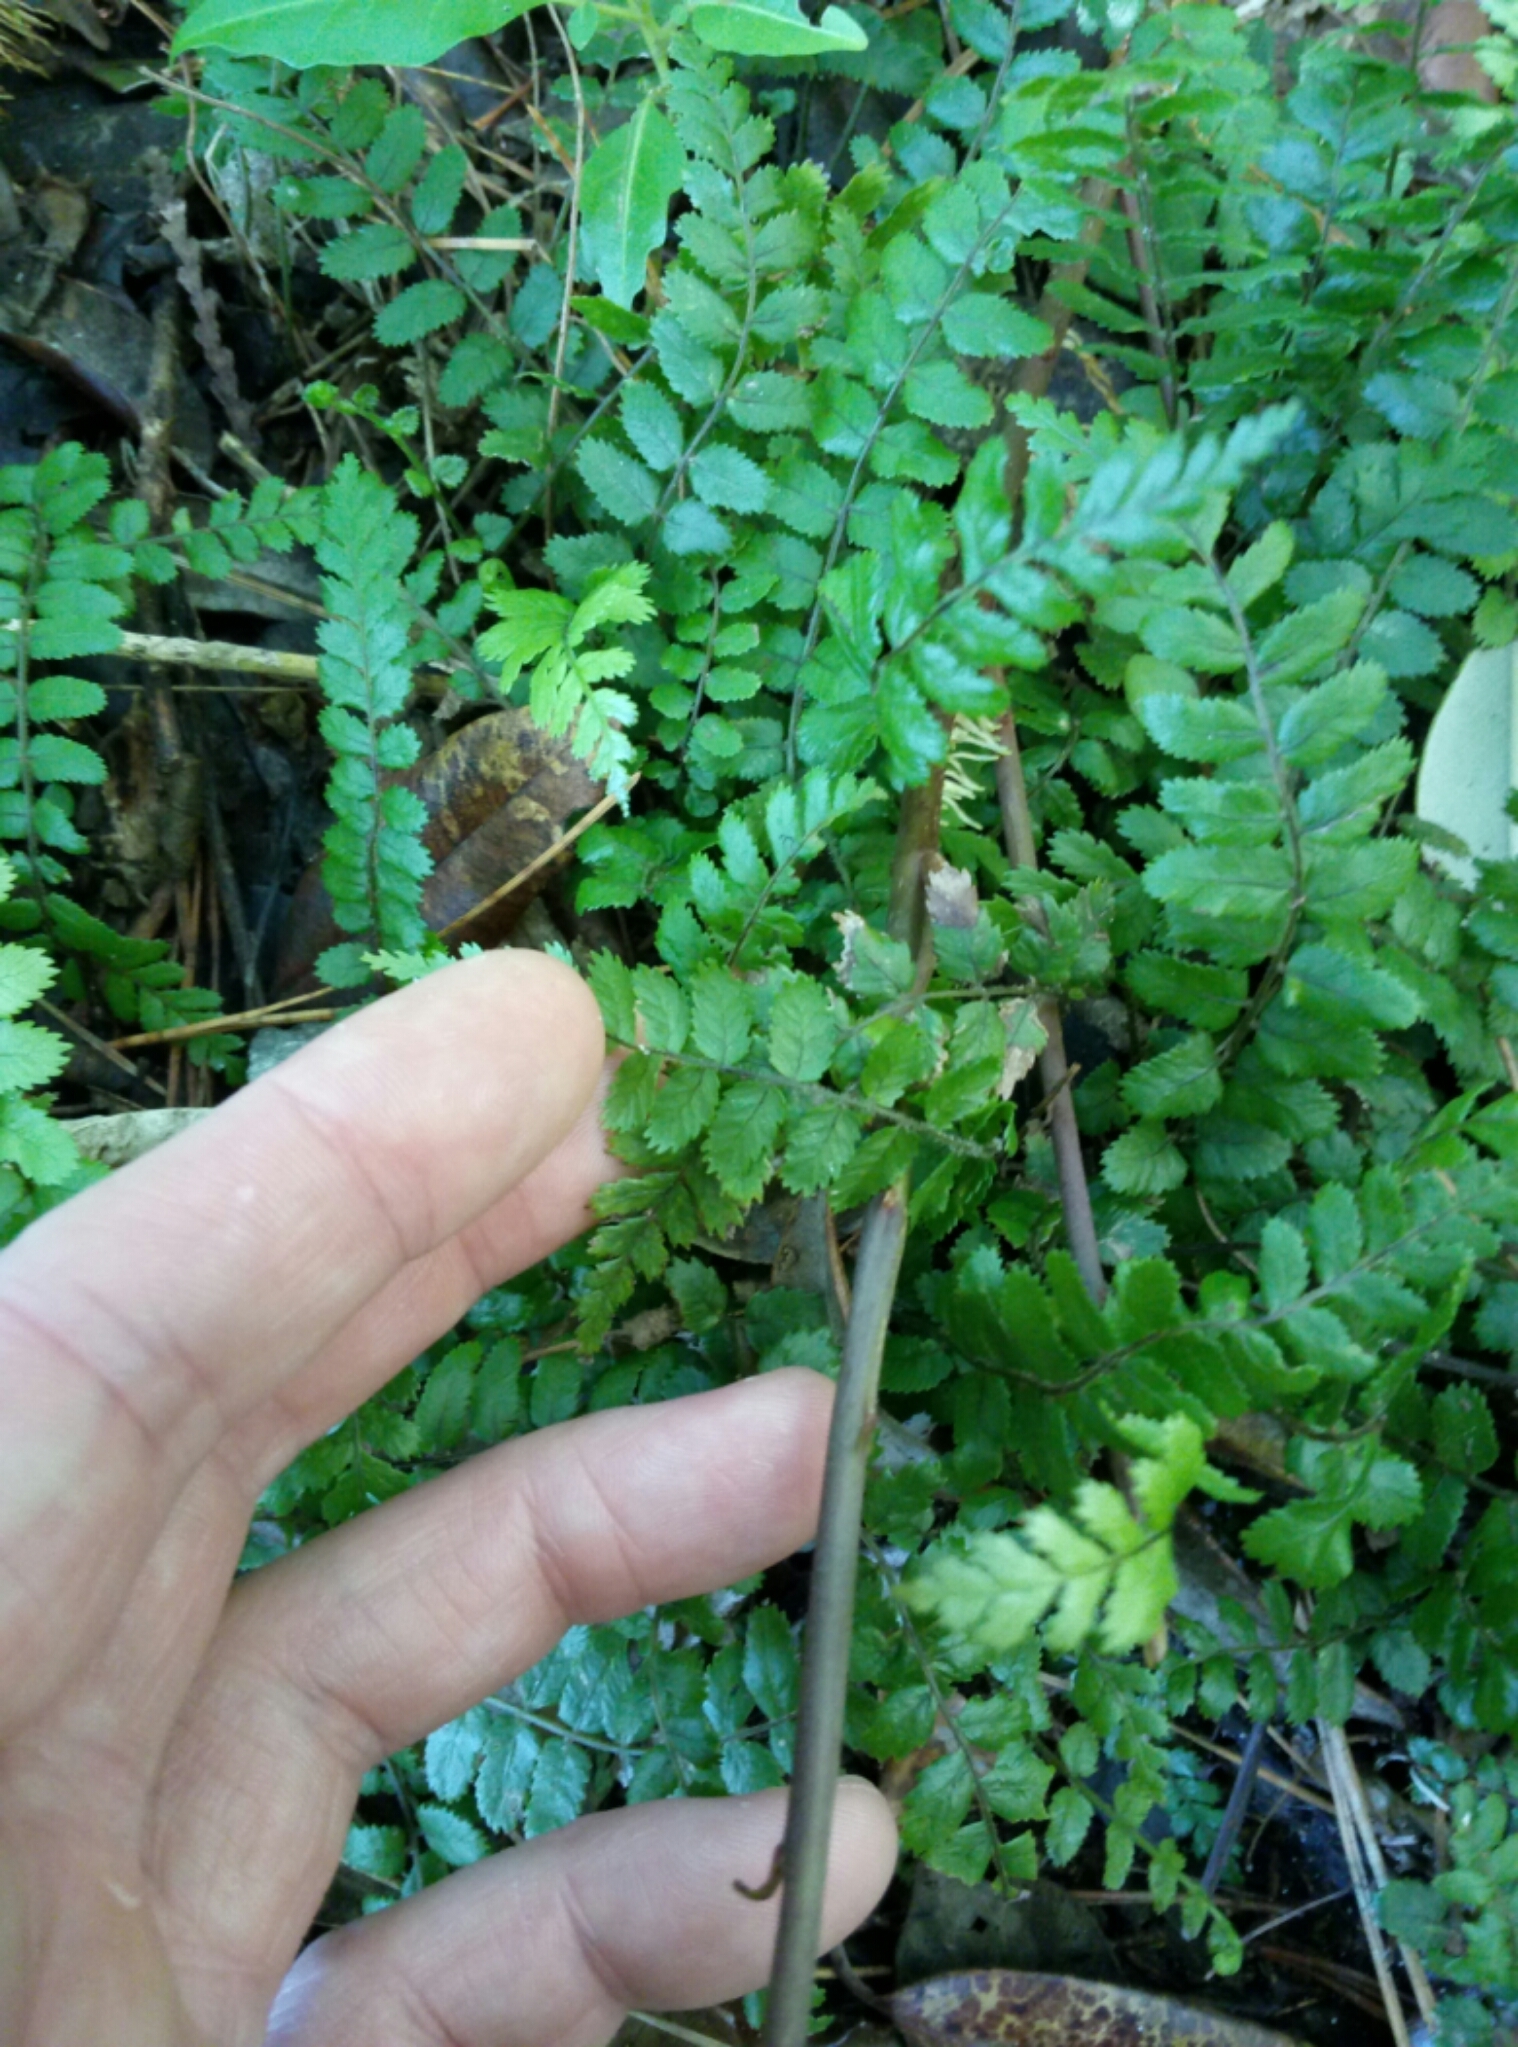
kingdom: Plantae
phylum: Tracheophyta
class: Polypodiopsida
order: Polypodiales
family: Blechnaceae
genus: Icarus
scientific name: Icarus filiformis
